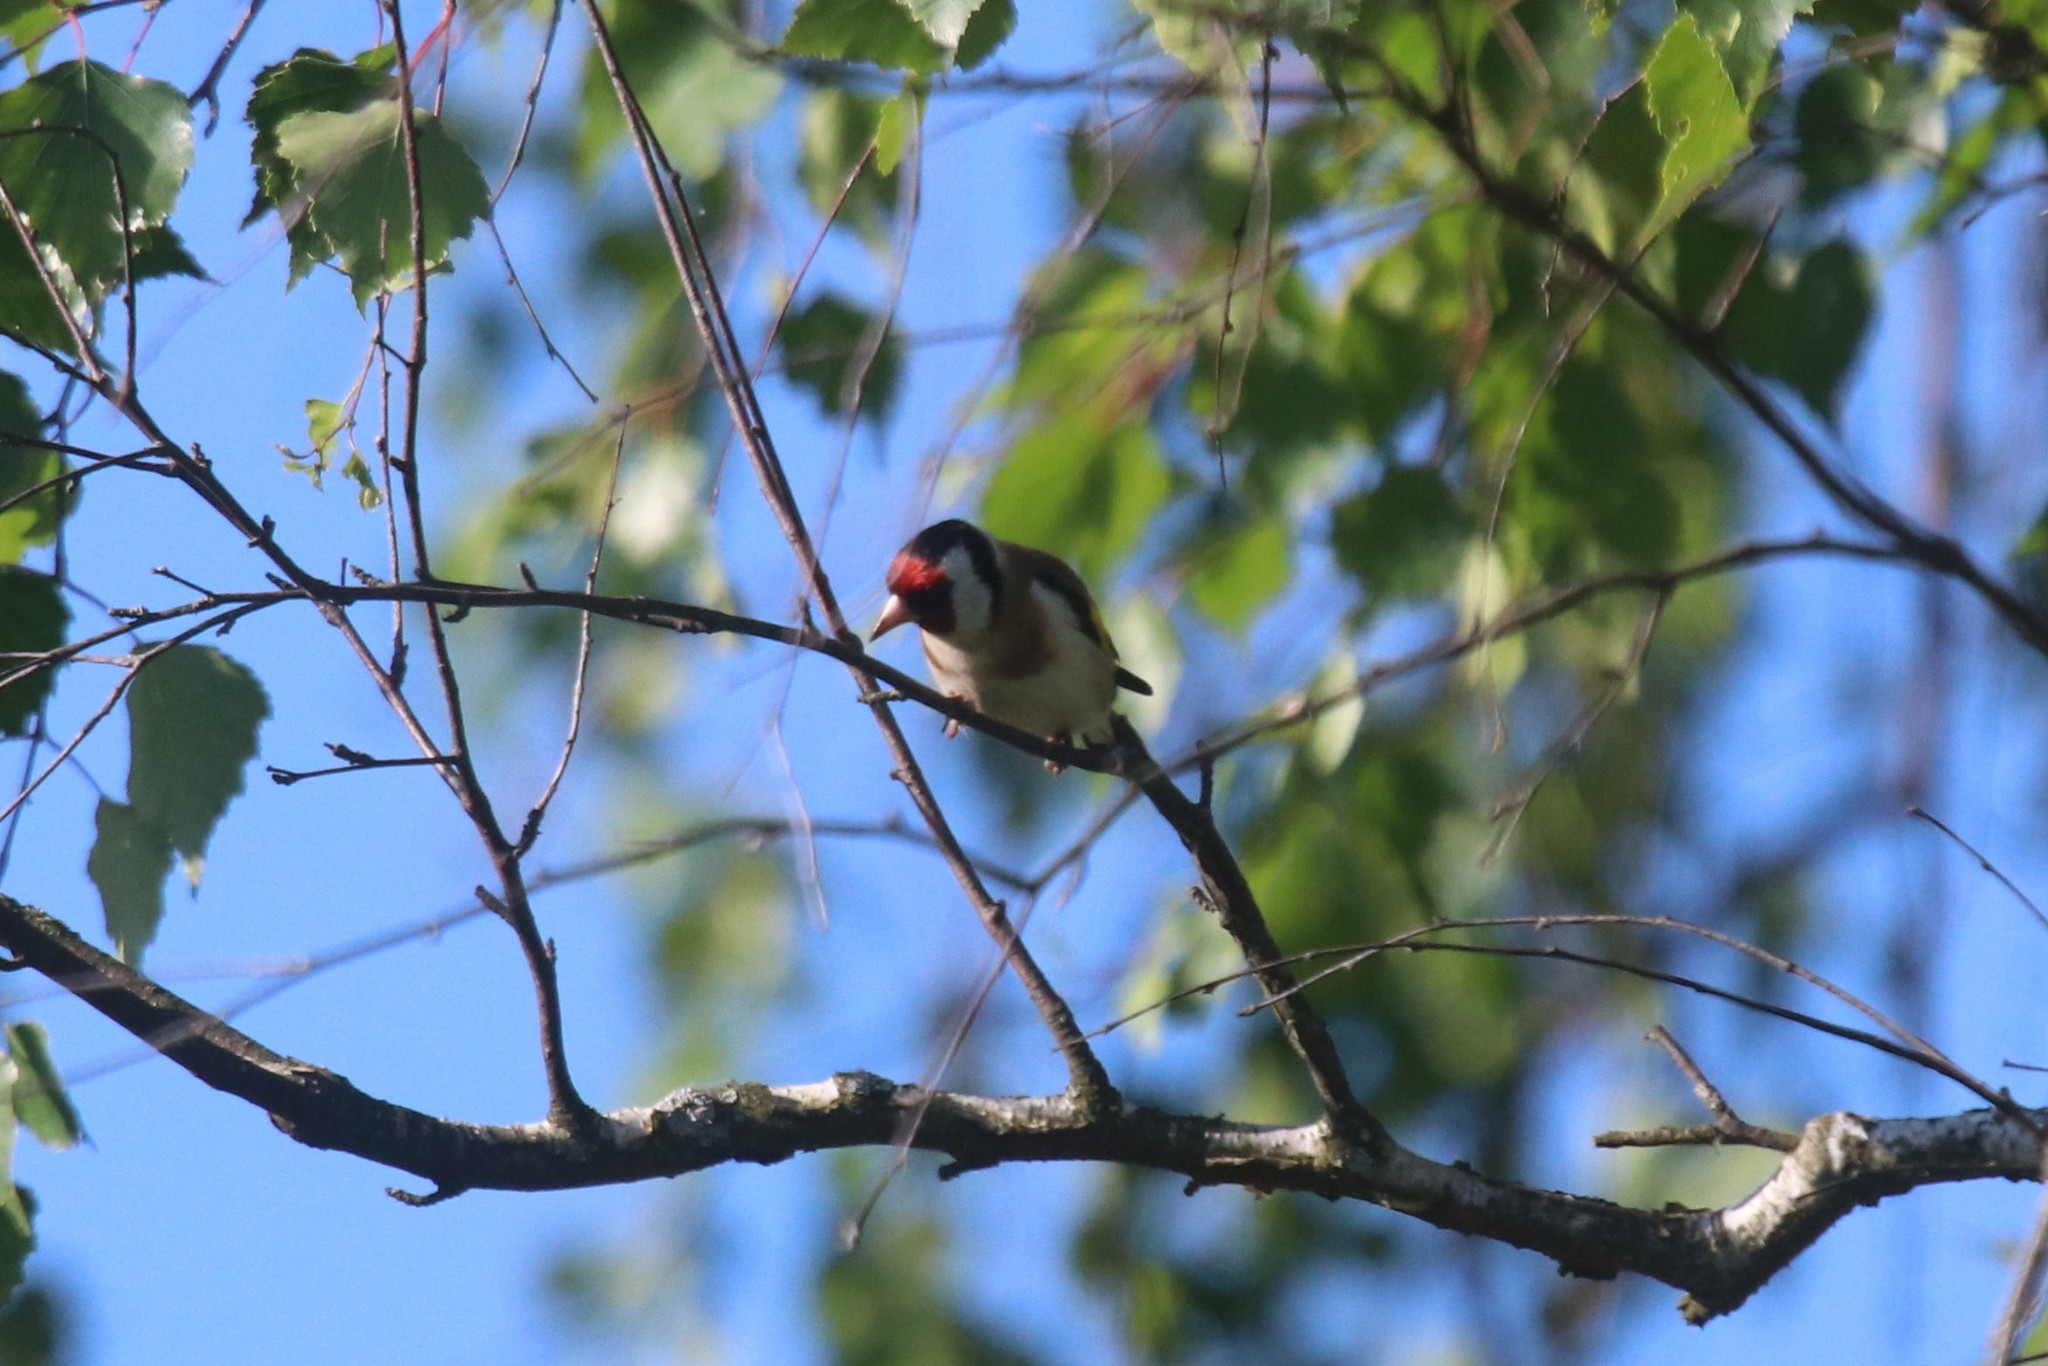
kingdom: Animalia
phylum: Chordata
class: Aves
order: Passeriformes
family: Fringillidae
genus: Carduelis
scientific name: Carduelis carduelis
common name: European goldfinch
